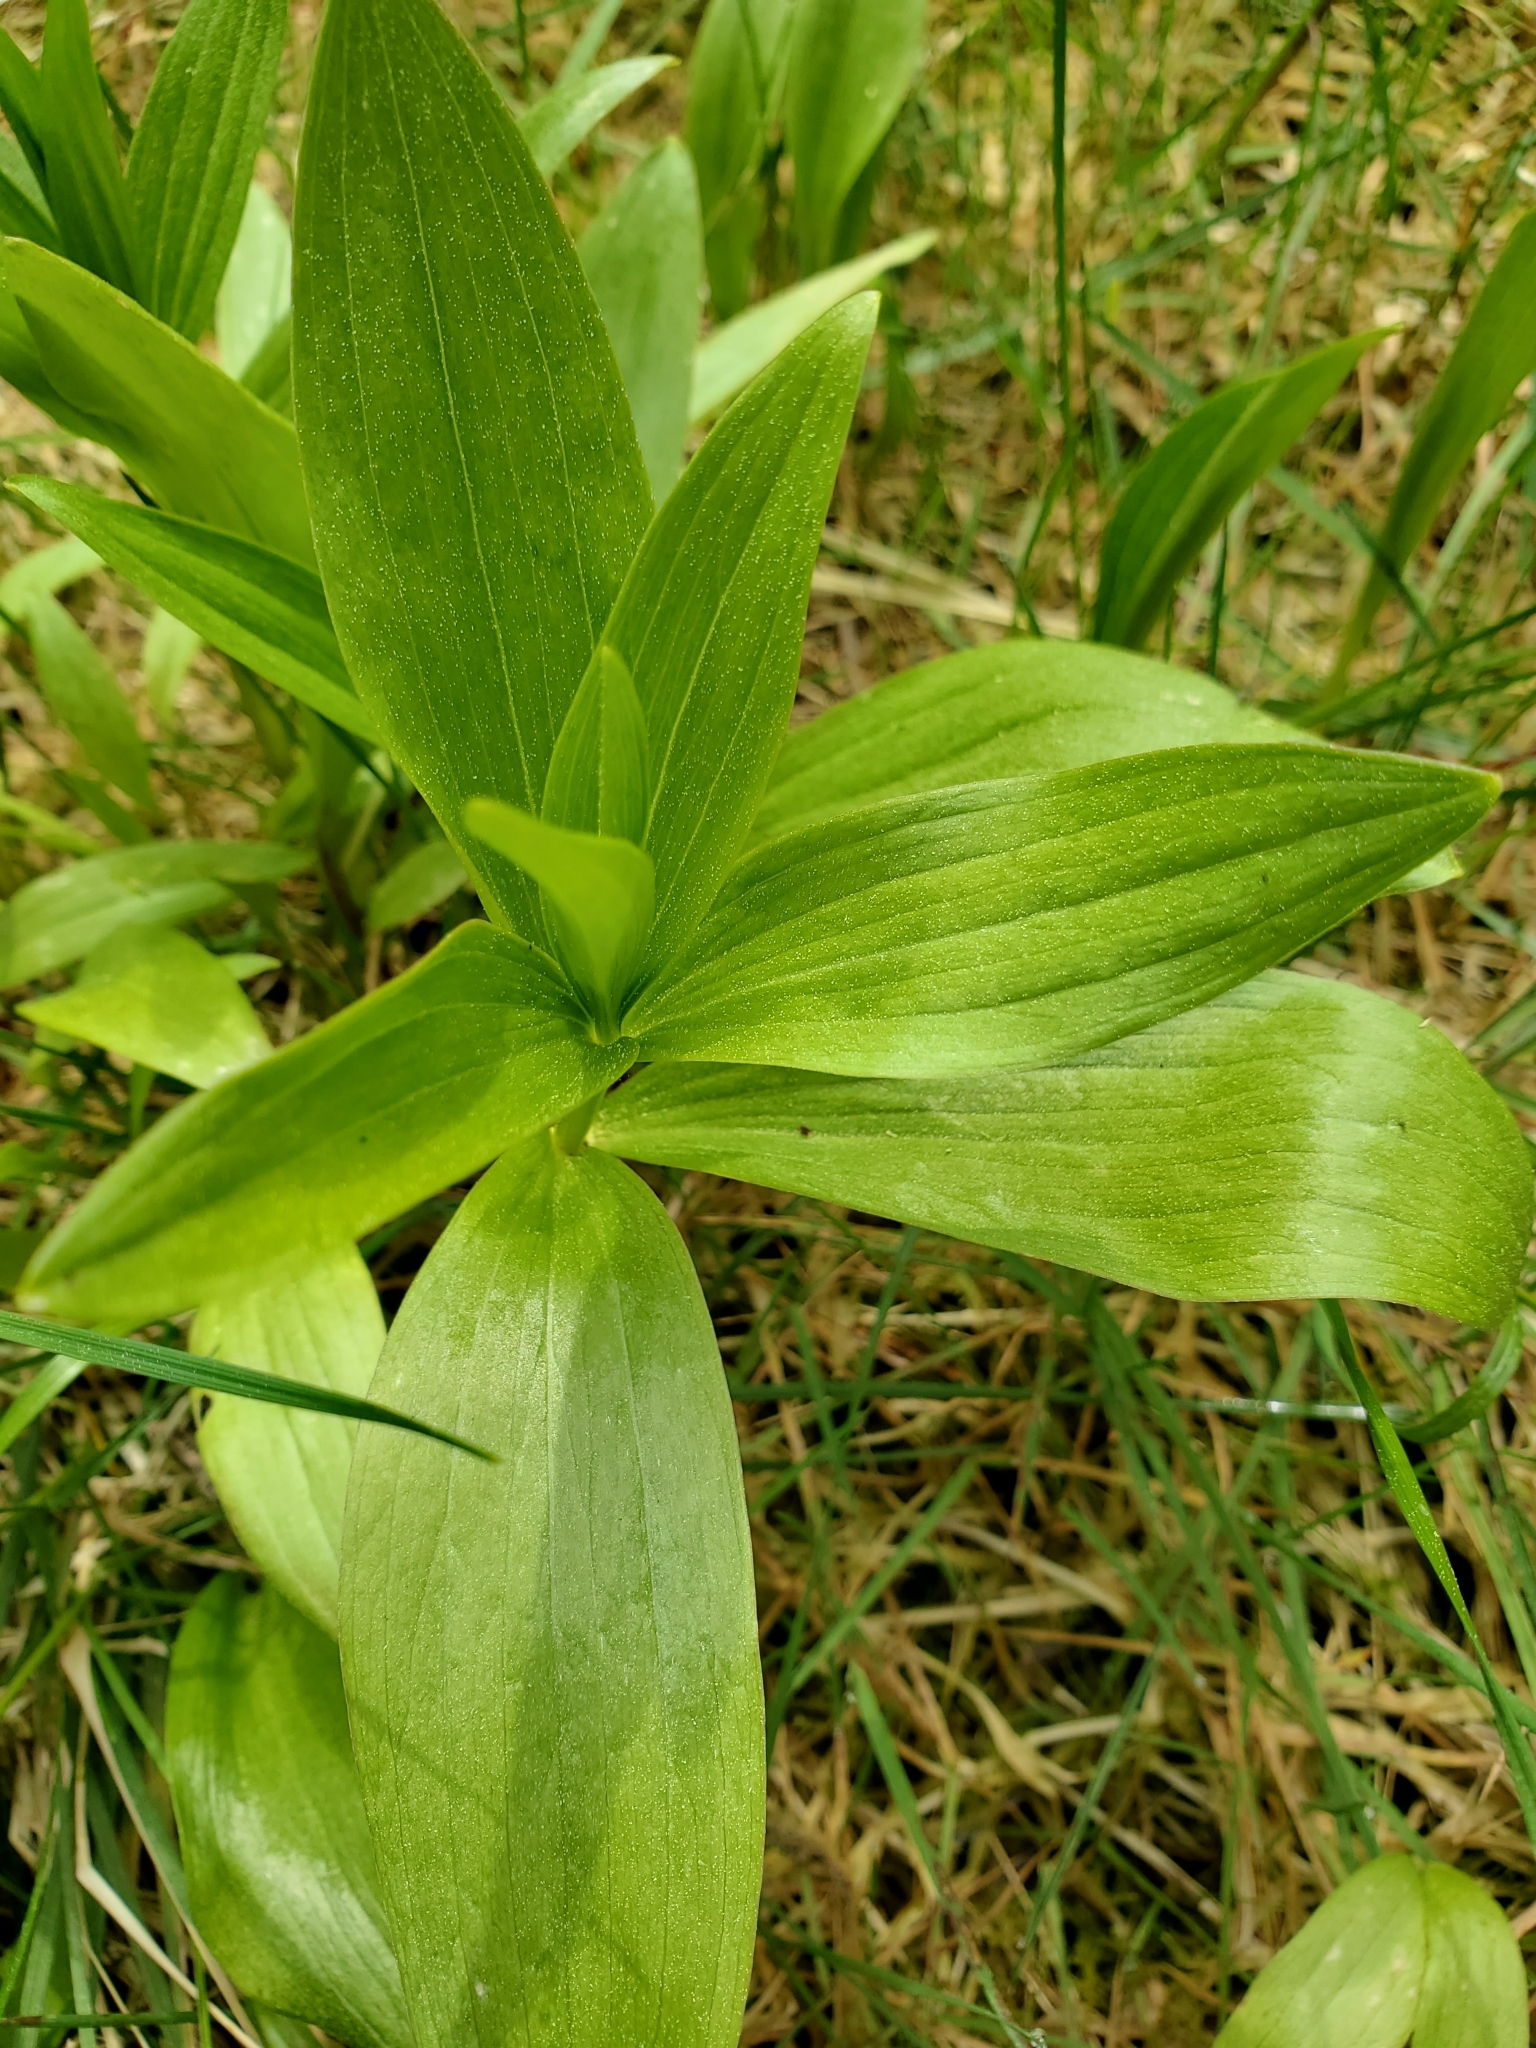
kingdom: Plantae
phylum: Tracheophyta
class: Liliopsida
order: Liliales
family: Liliaceae
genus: Fritillaria
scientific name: Fritillaria camschatcensis
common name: Kamchatka fritillary
